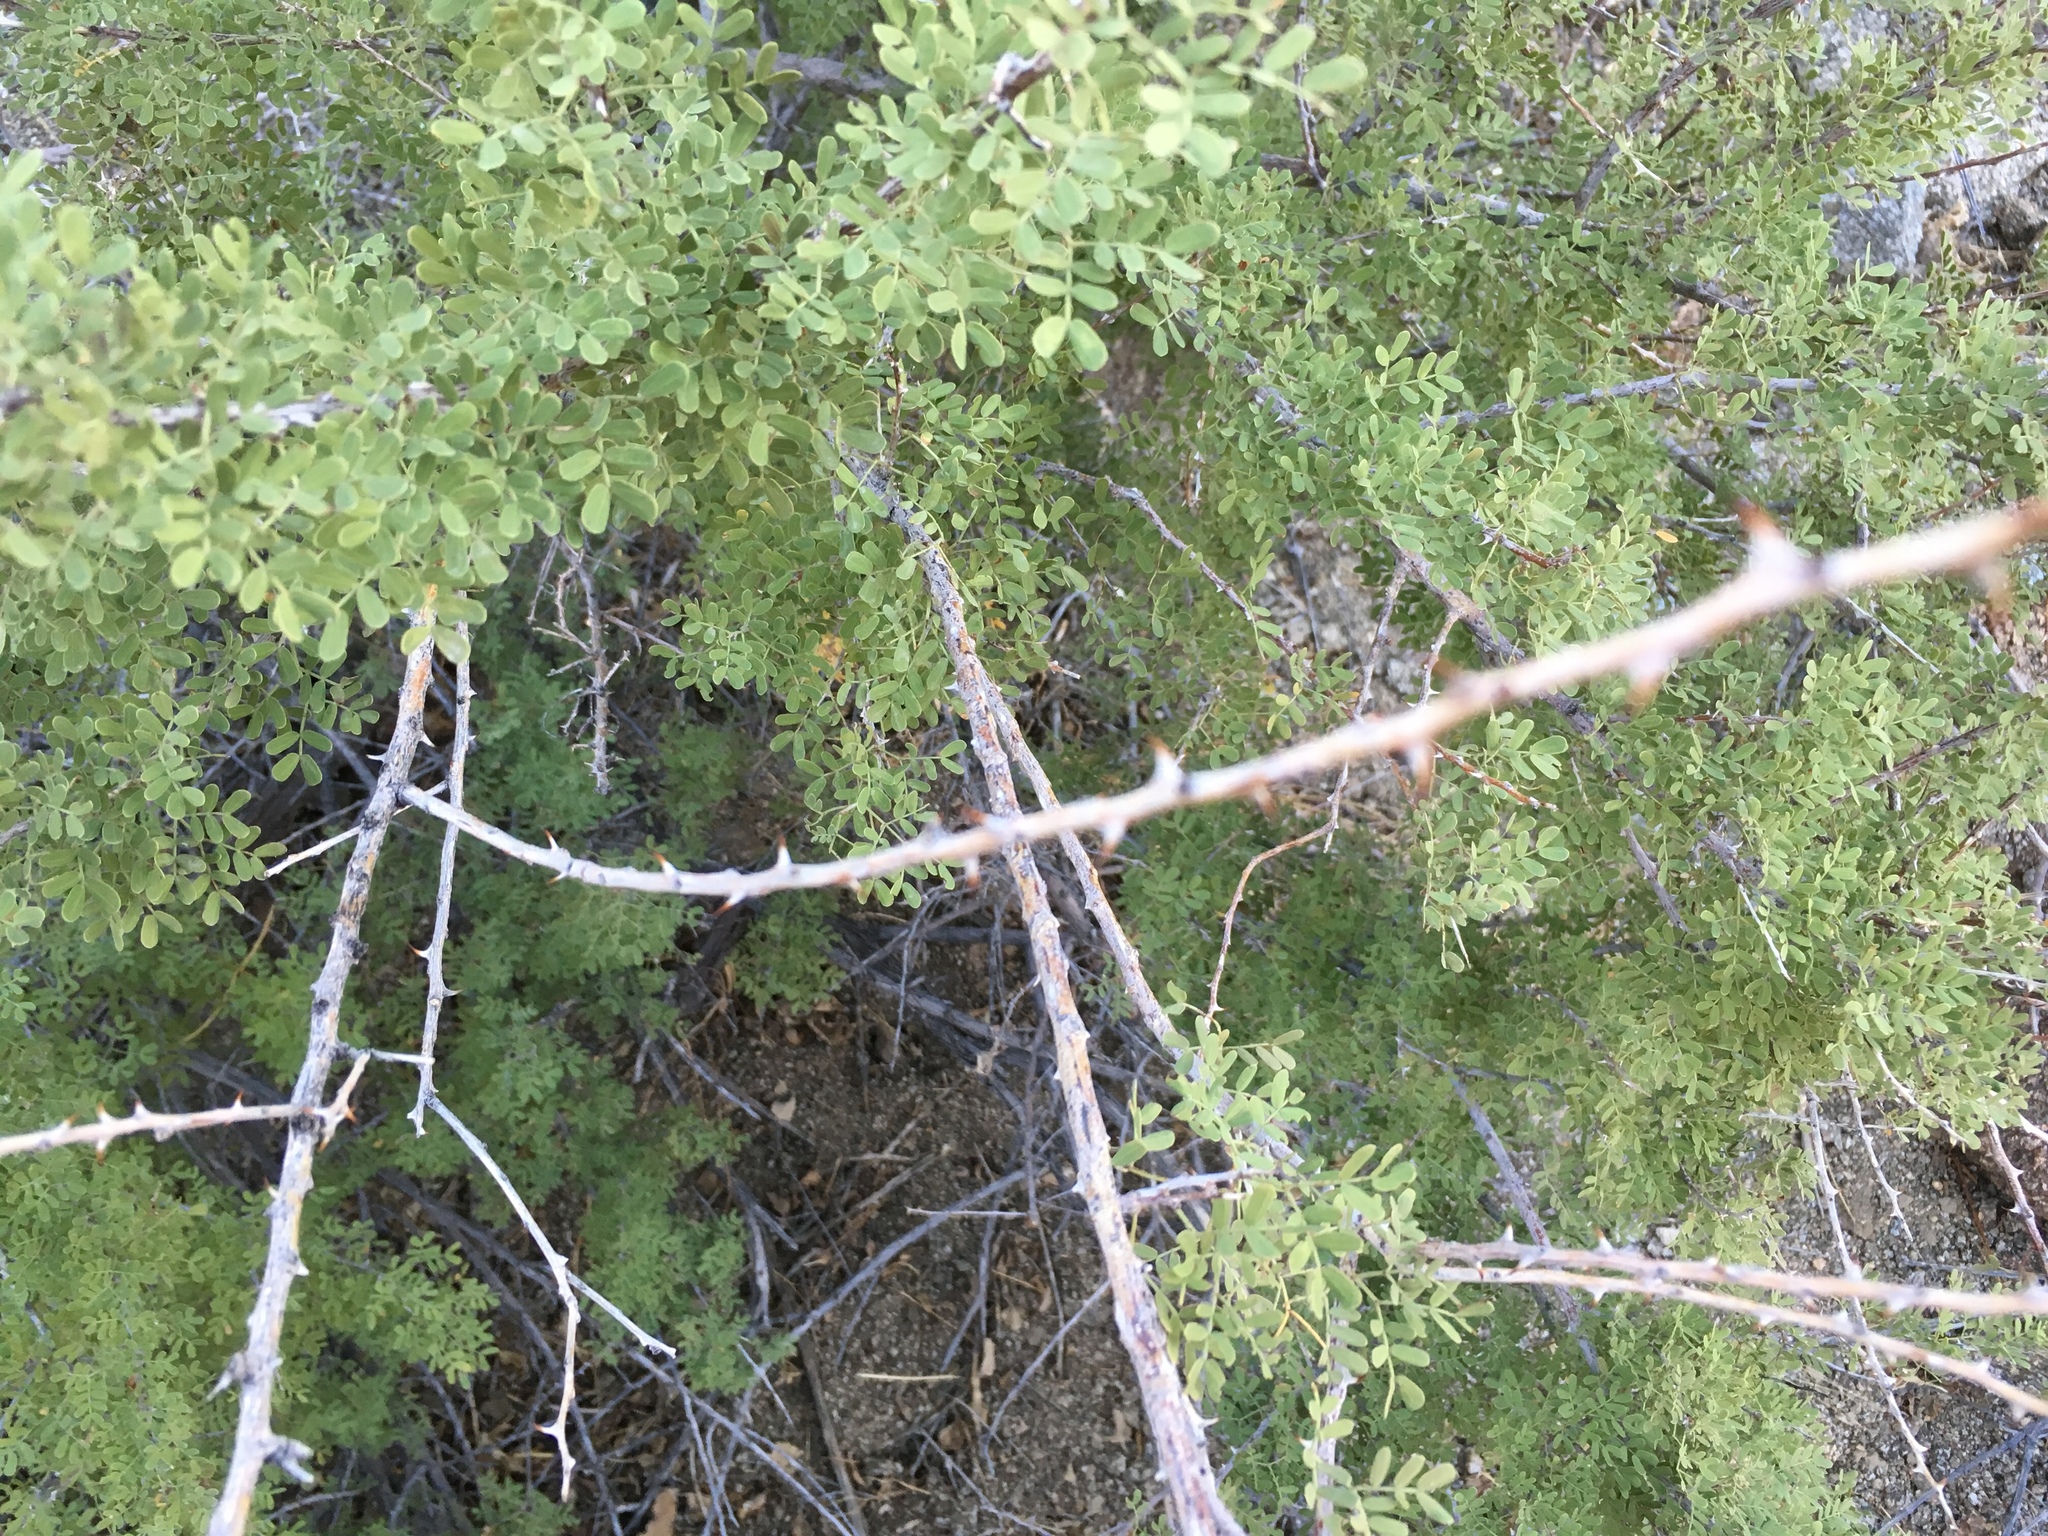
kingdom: Plantae
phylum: Tracheophyta
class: Magnoliopsida
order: Fabales
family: Fabaceae
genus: Senegalia
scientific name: Senegalia greggii
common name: Texas-mimosa
